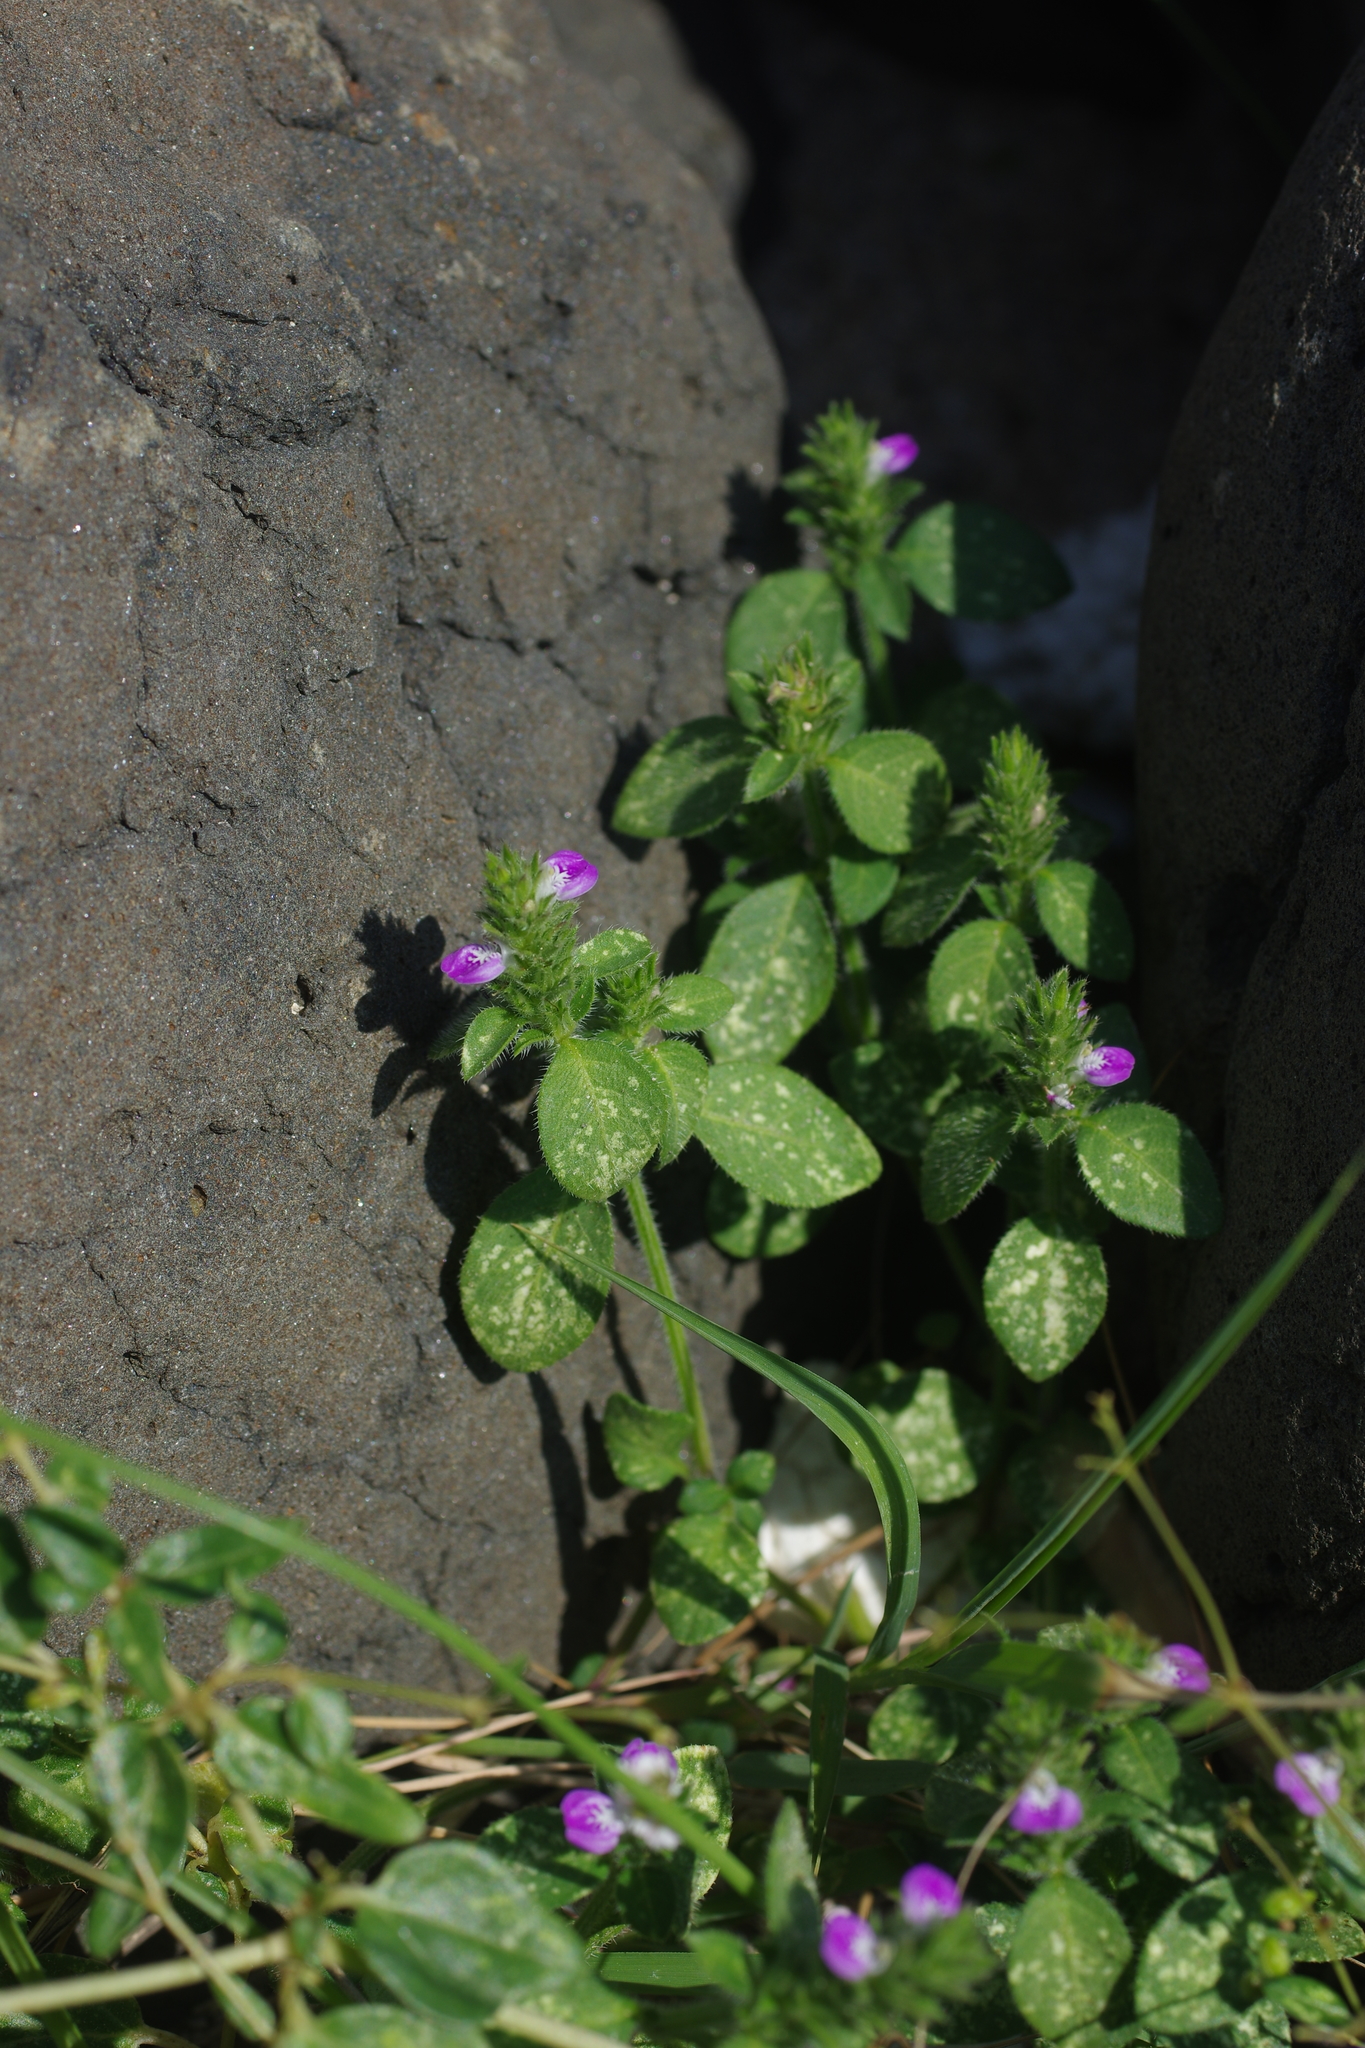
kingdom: Plantae
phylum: Tracheophyta
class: Magnoliopsida
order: Lamiales
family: Acanthaceae
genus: Rostellularia
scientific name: Rostellularia procumbens
